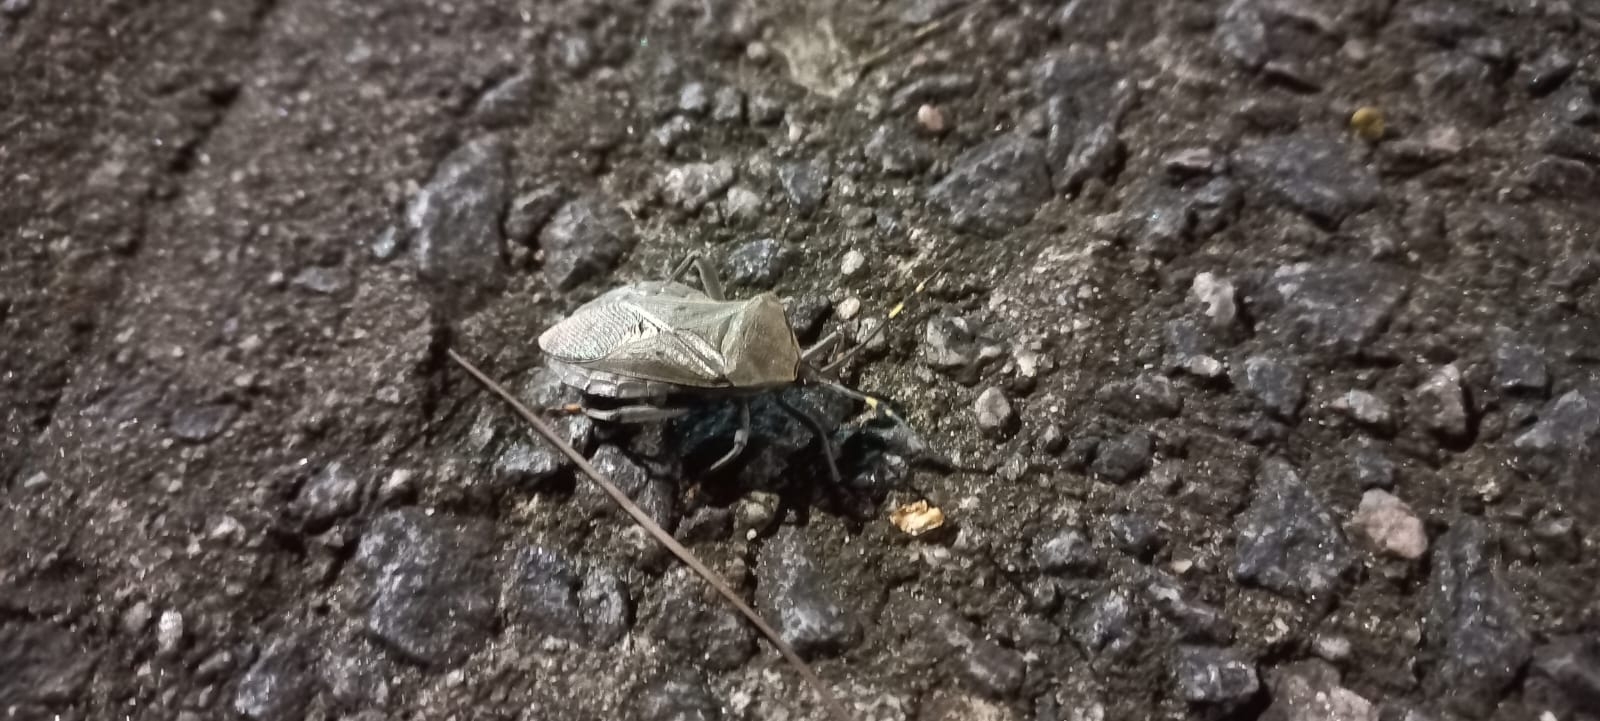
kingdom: Animalia
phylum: Arthropoda
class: Insecta
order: Hemiptera
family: Coreidae
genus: Pachylis
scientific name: Pachylis laticornis
